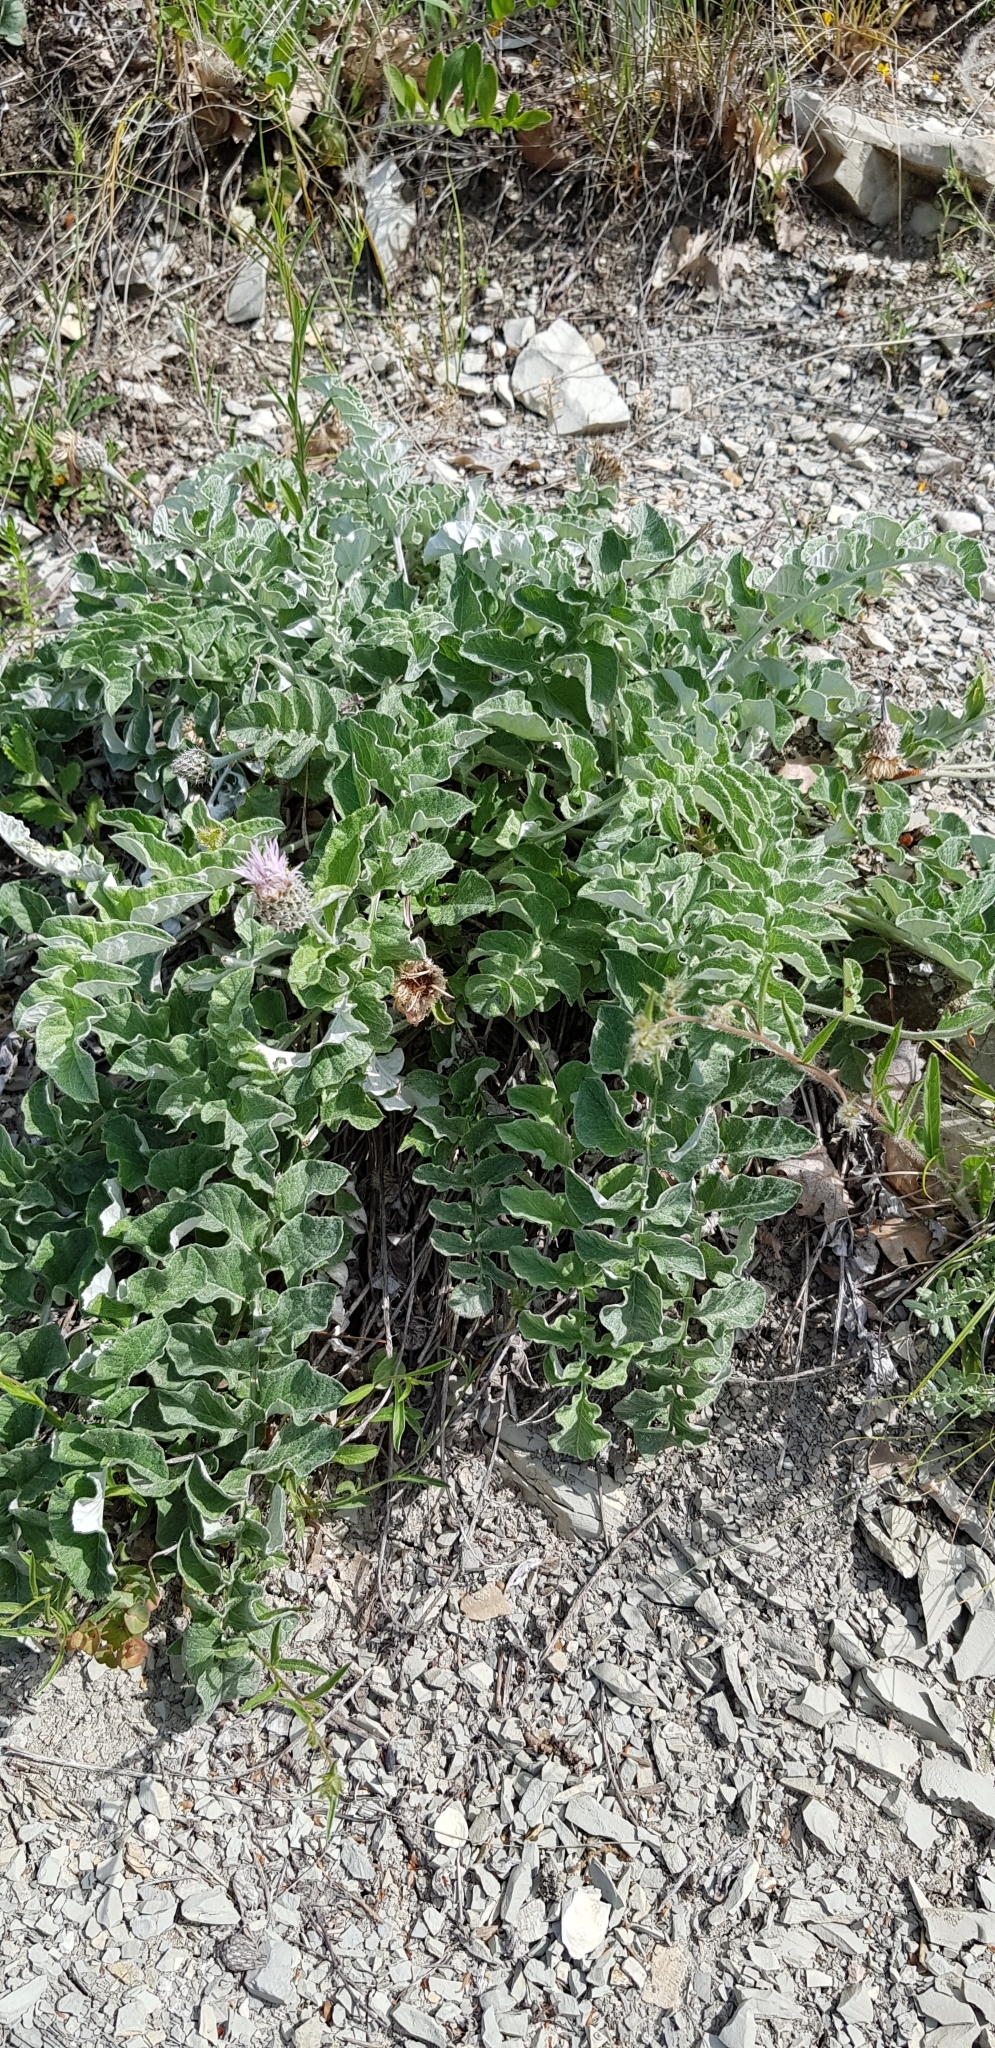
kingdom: Plantae
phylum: Tracheophyta
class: Magnoliopsida
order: Asterales
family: Asteraceae
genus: Psephellus
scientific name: Psephellus declinatus
